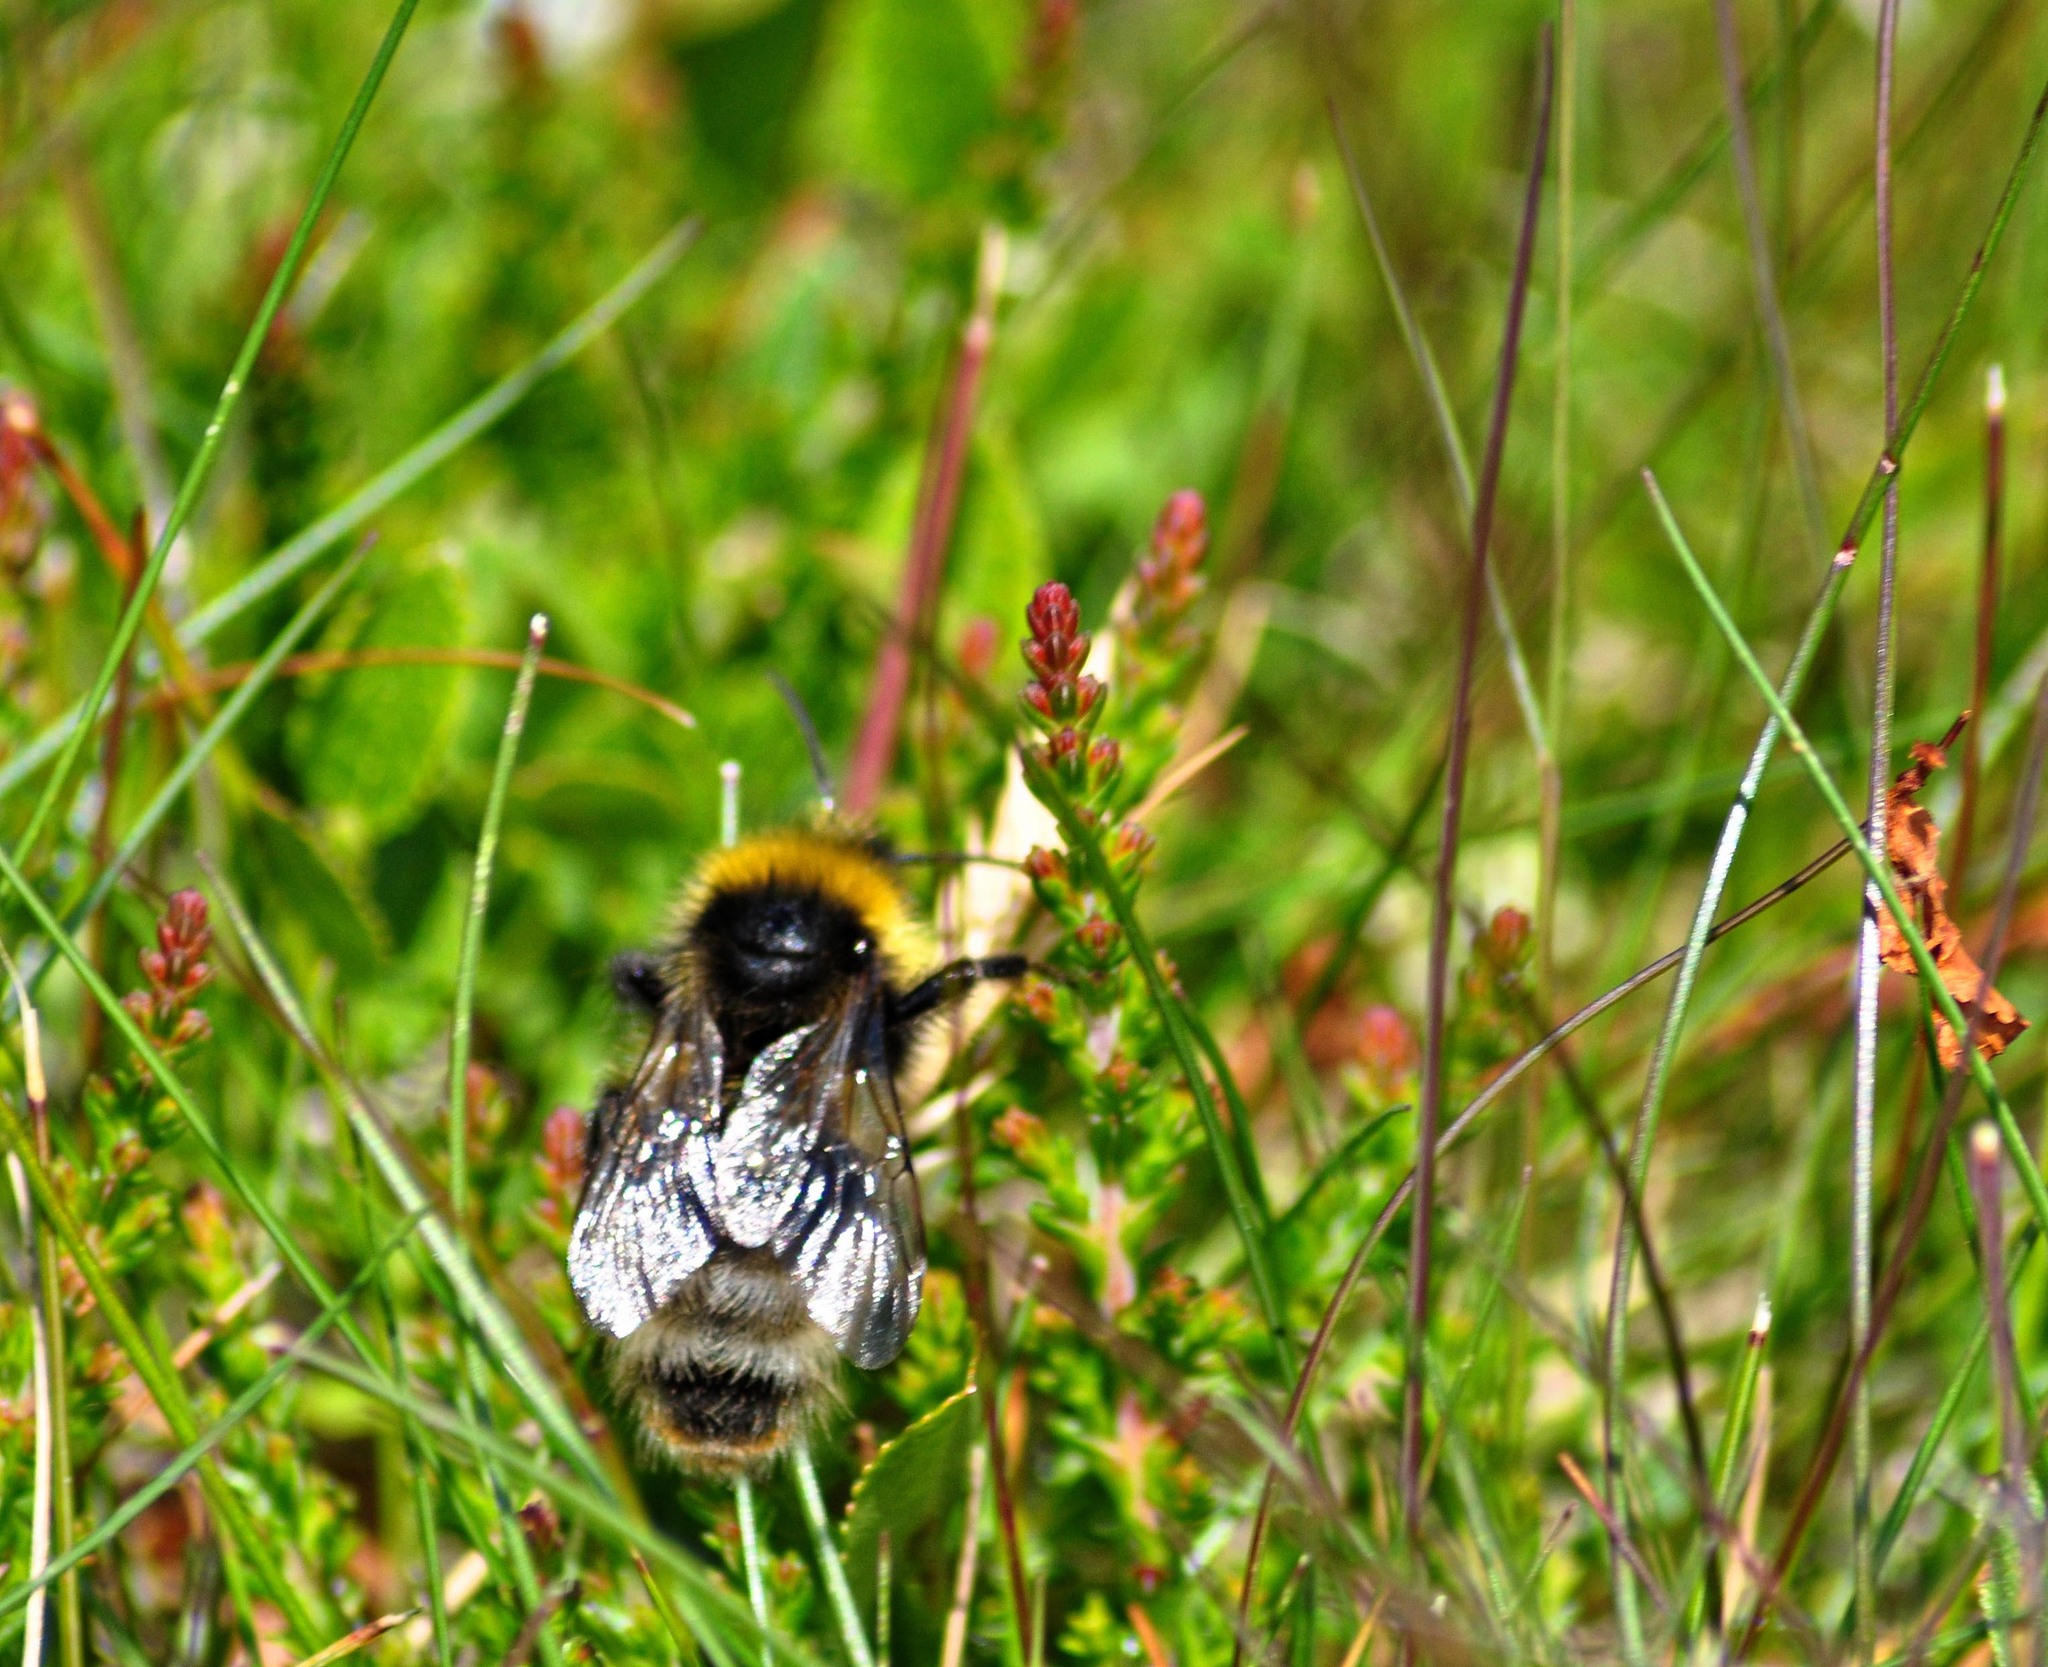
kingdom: Animalia
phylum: Arthropoda
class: Insecta
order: Hymenoptera
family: Apidae
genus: Bombus
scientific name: Bombus sylvestris
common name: Forest cuckoo bee
